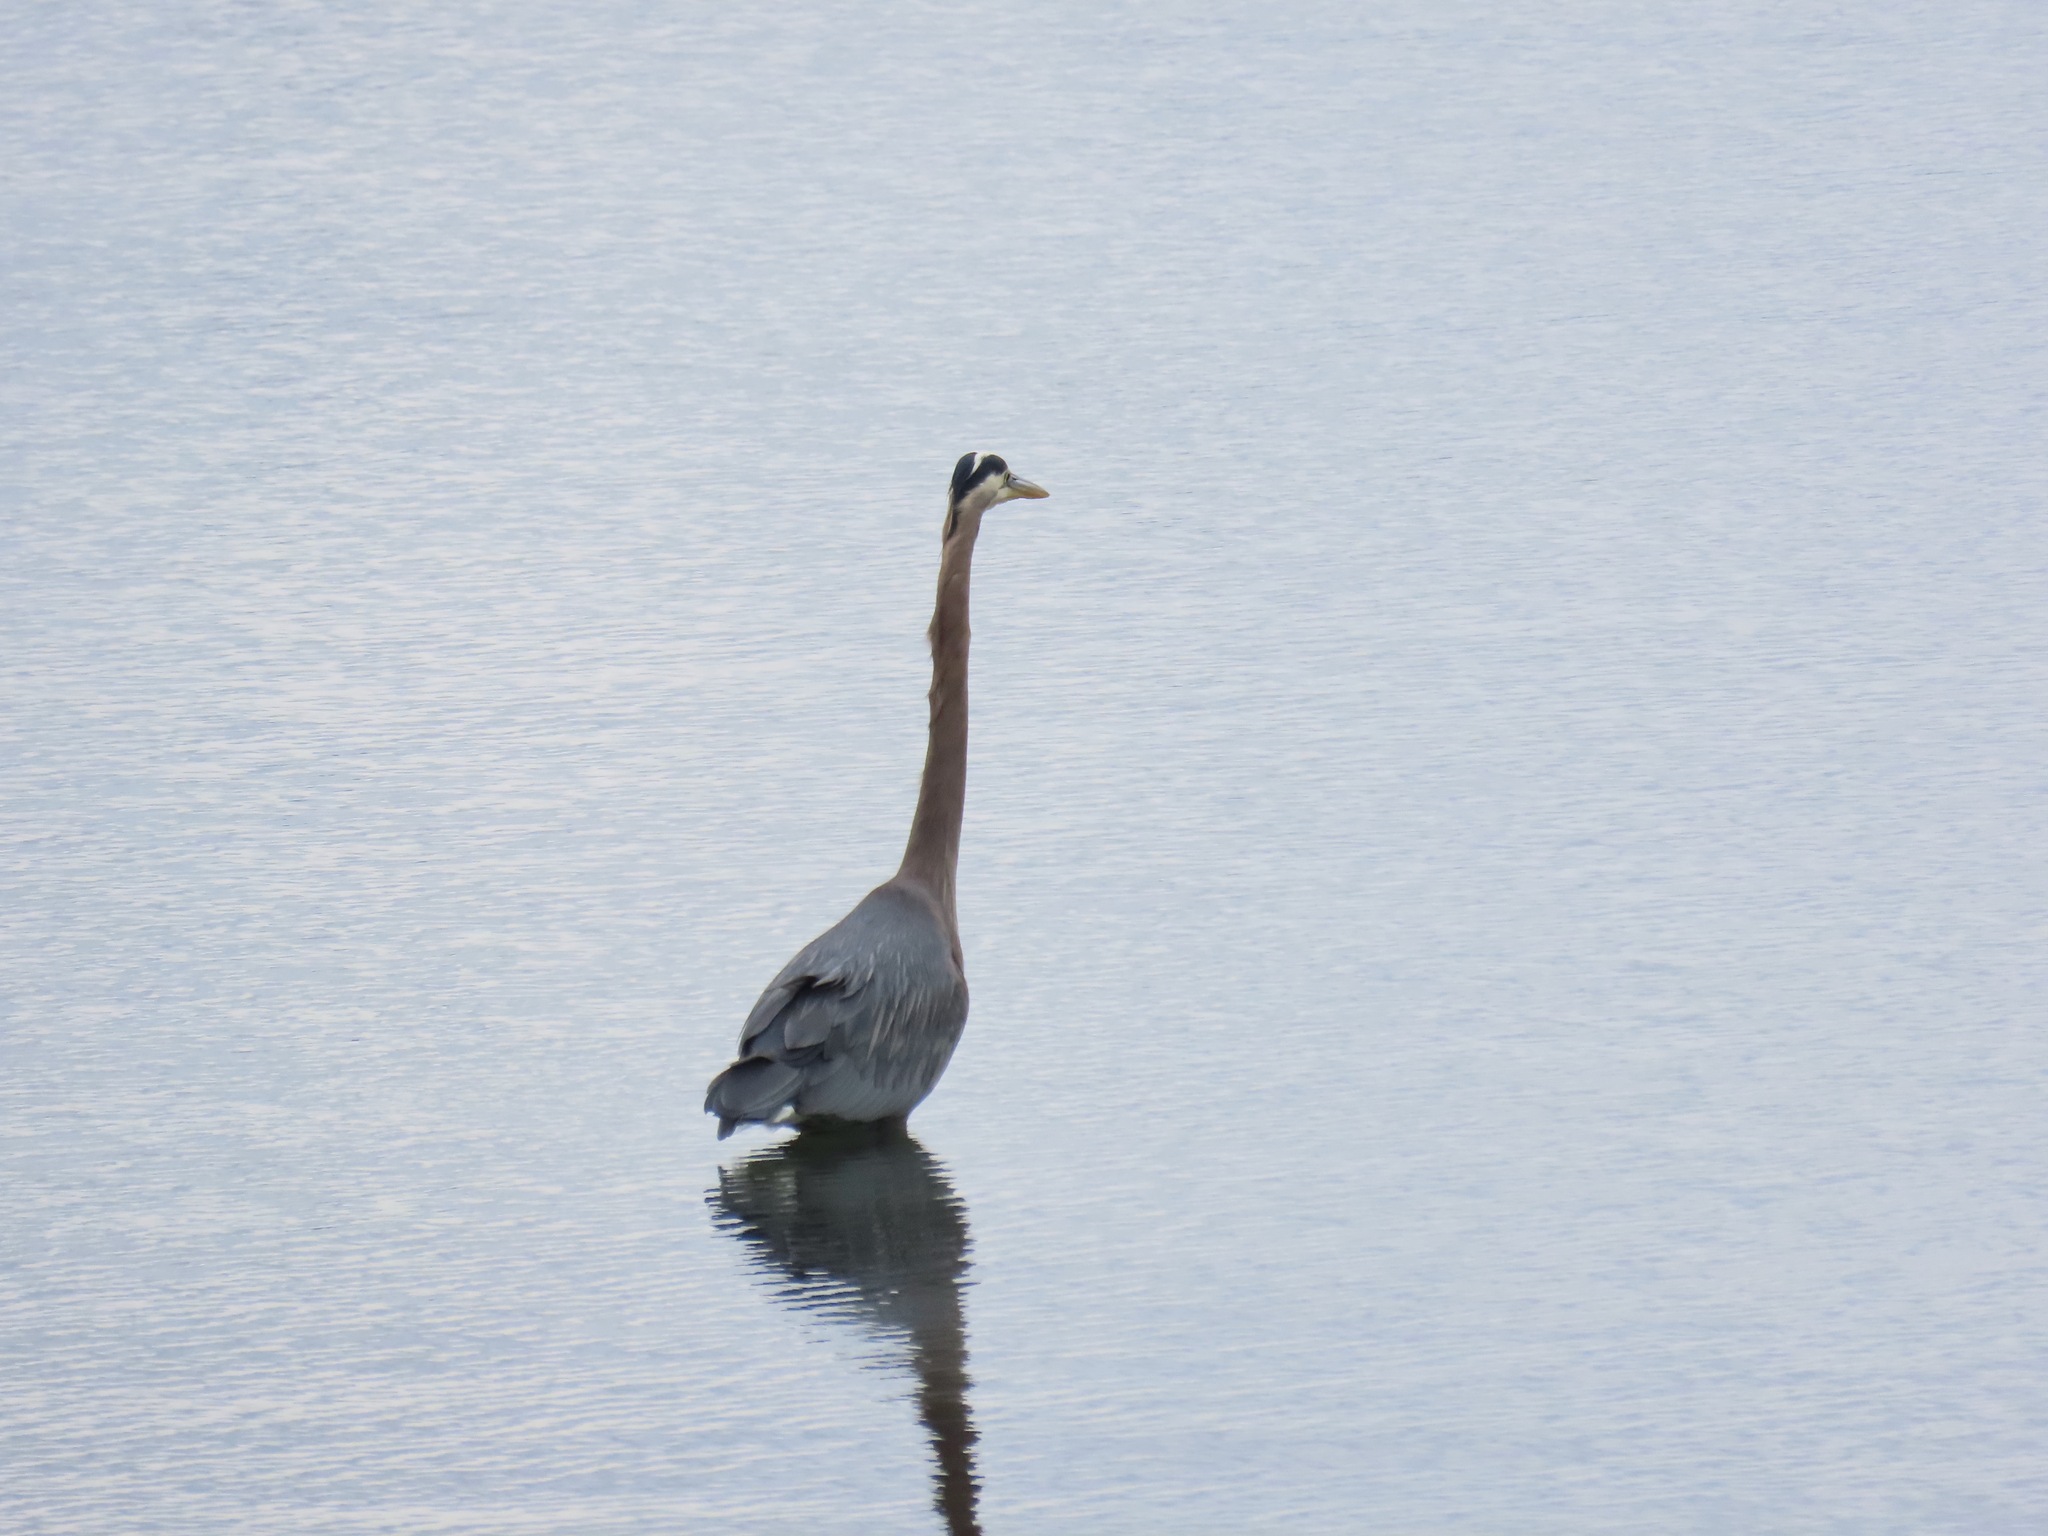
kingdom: Animalia
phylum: Chordata
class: Aves
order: Pelecaniformes
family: Ardeidae
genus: Ardea
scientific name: Ardea herodias
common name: Great blue heron
